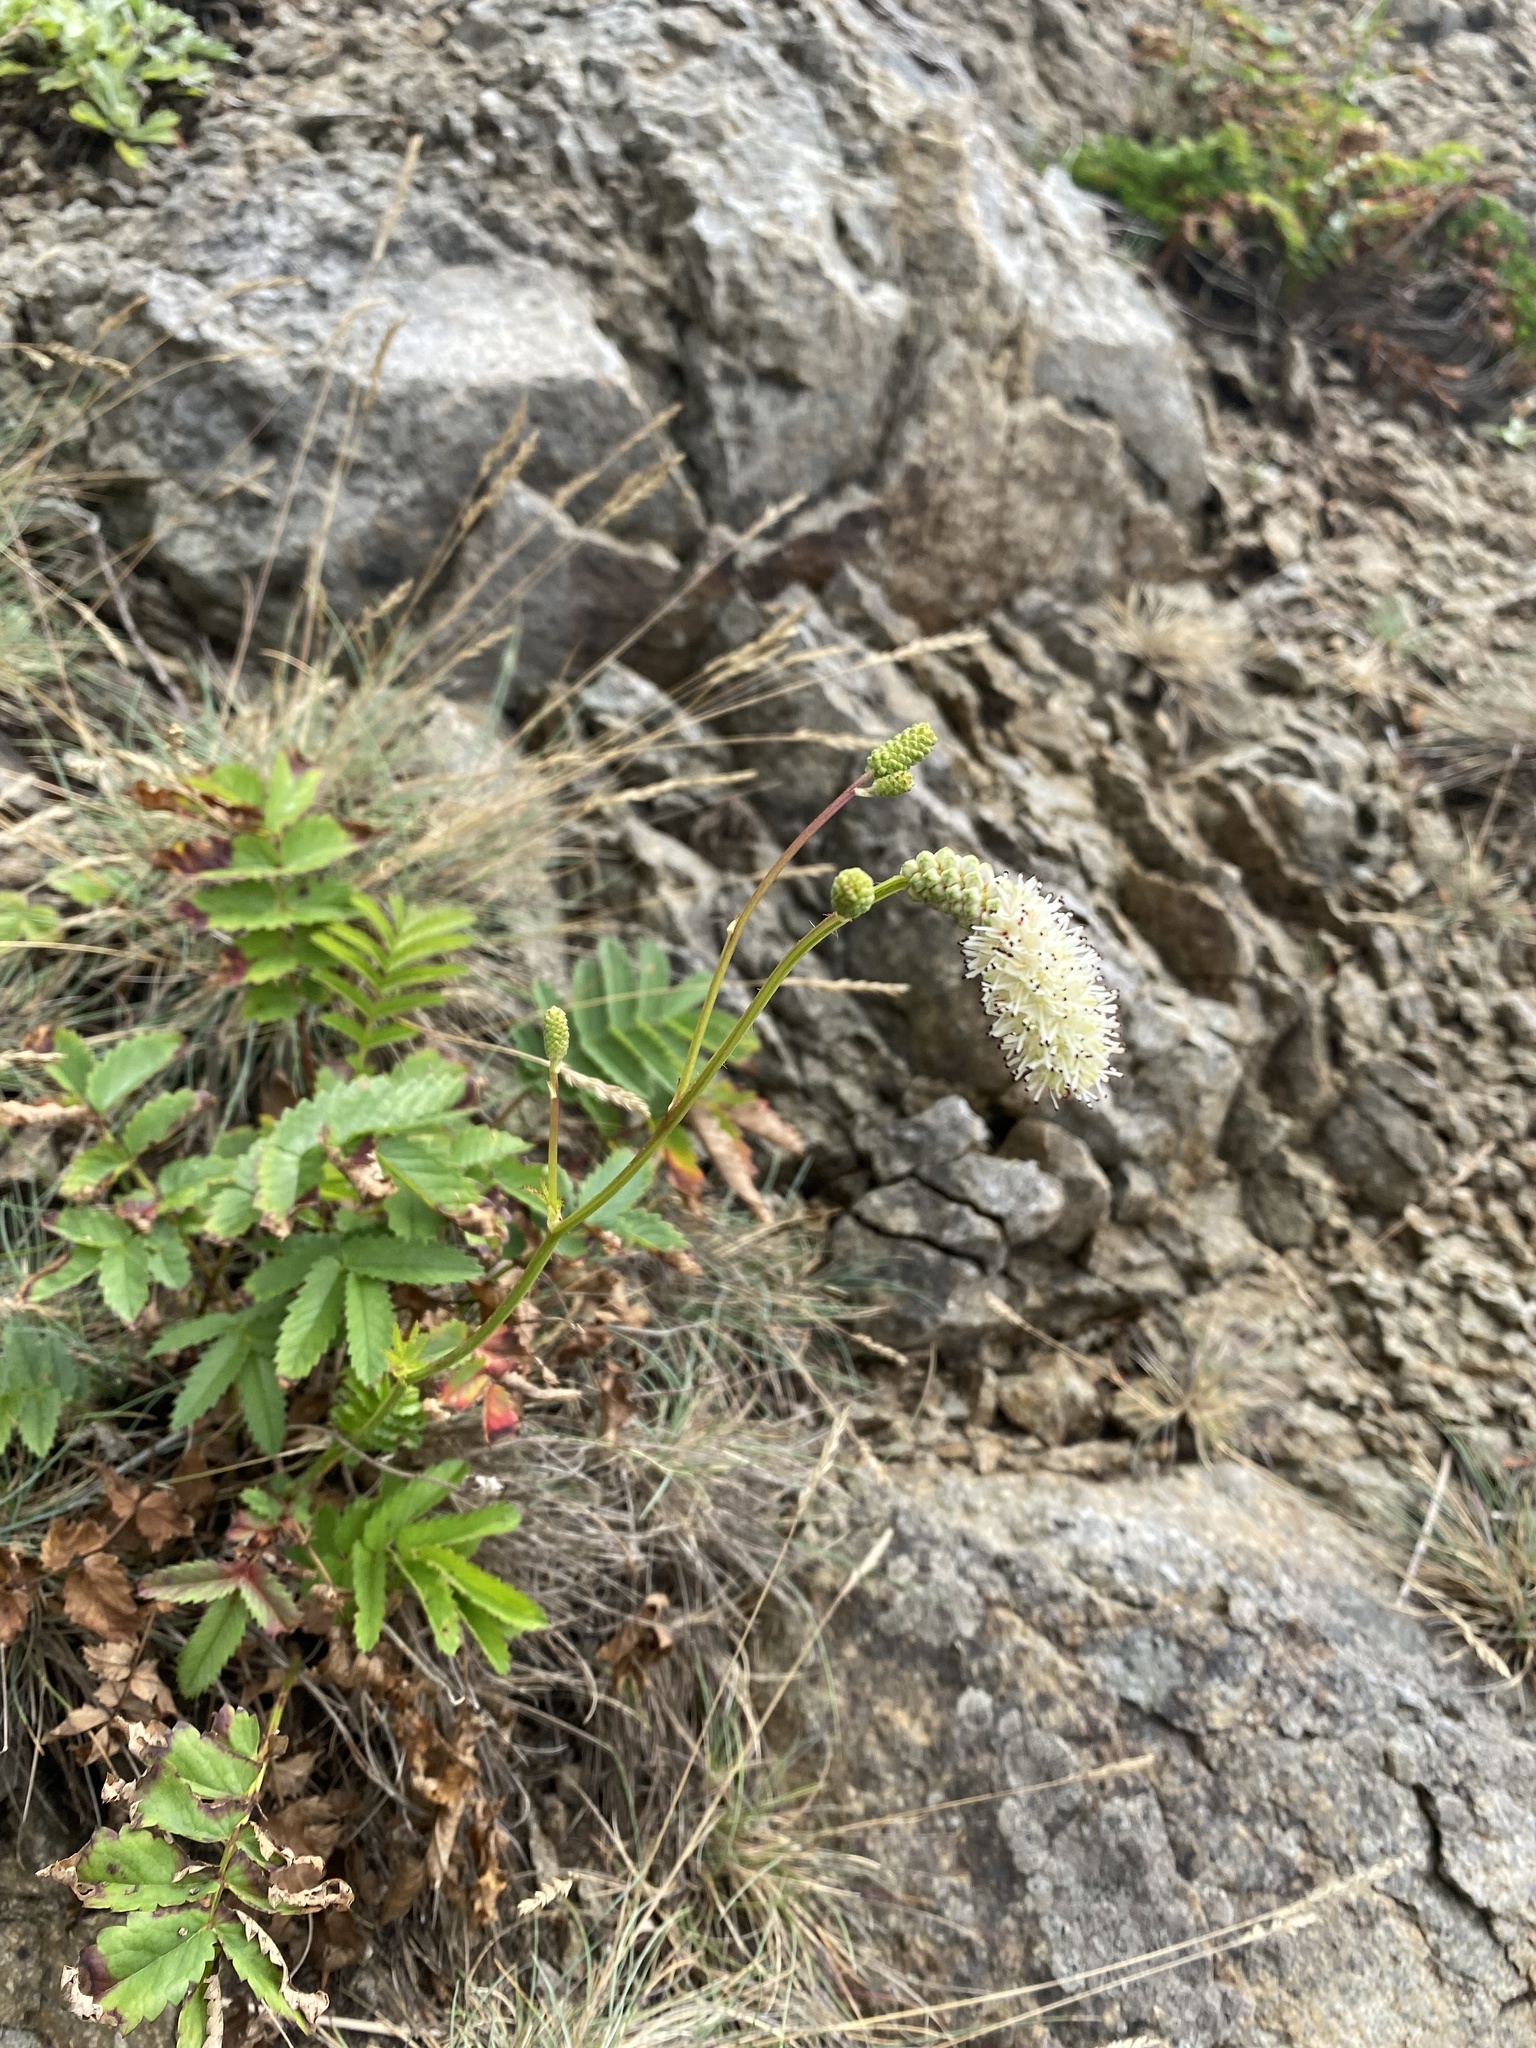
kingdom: Plantae
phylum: Tracheophyta
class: Magnoliopsida
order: Rosales
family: Rosaceae
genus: Poterium
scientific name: Poterium tenuifolium
